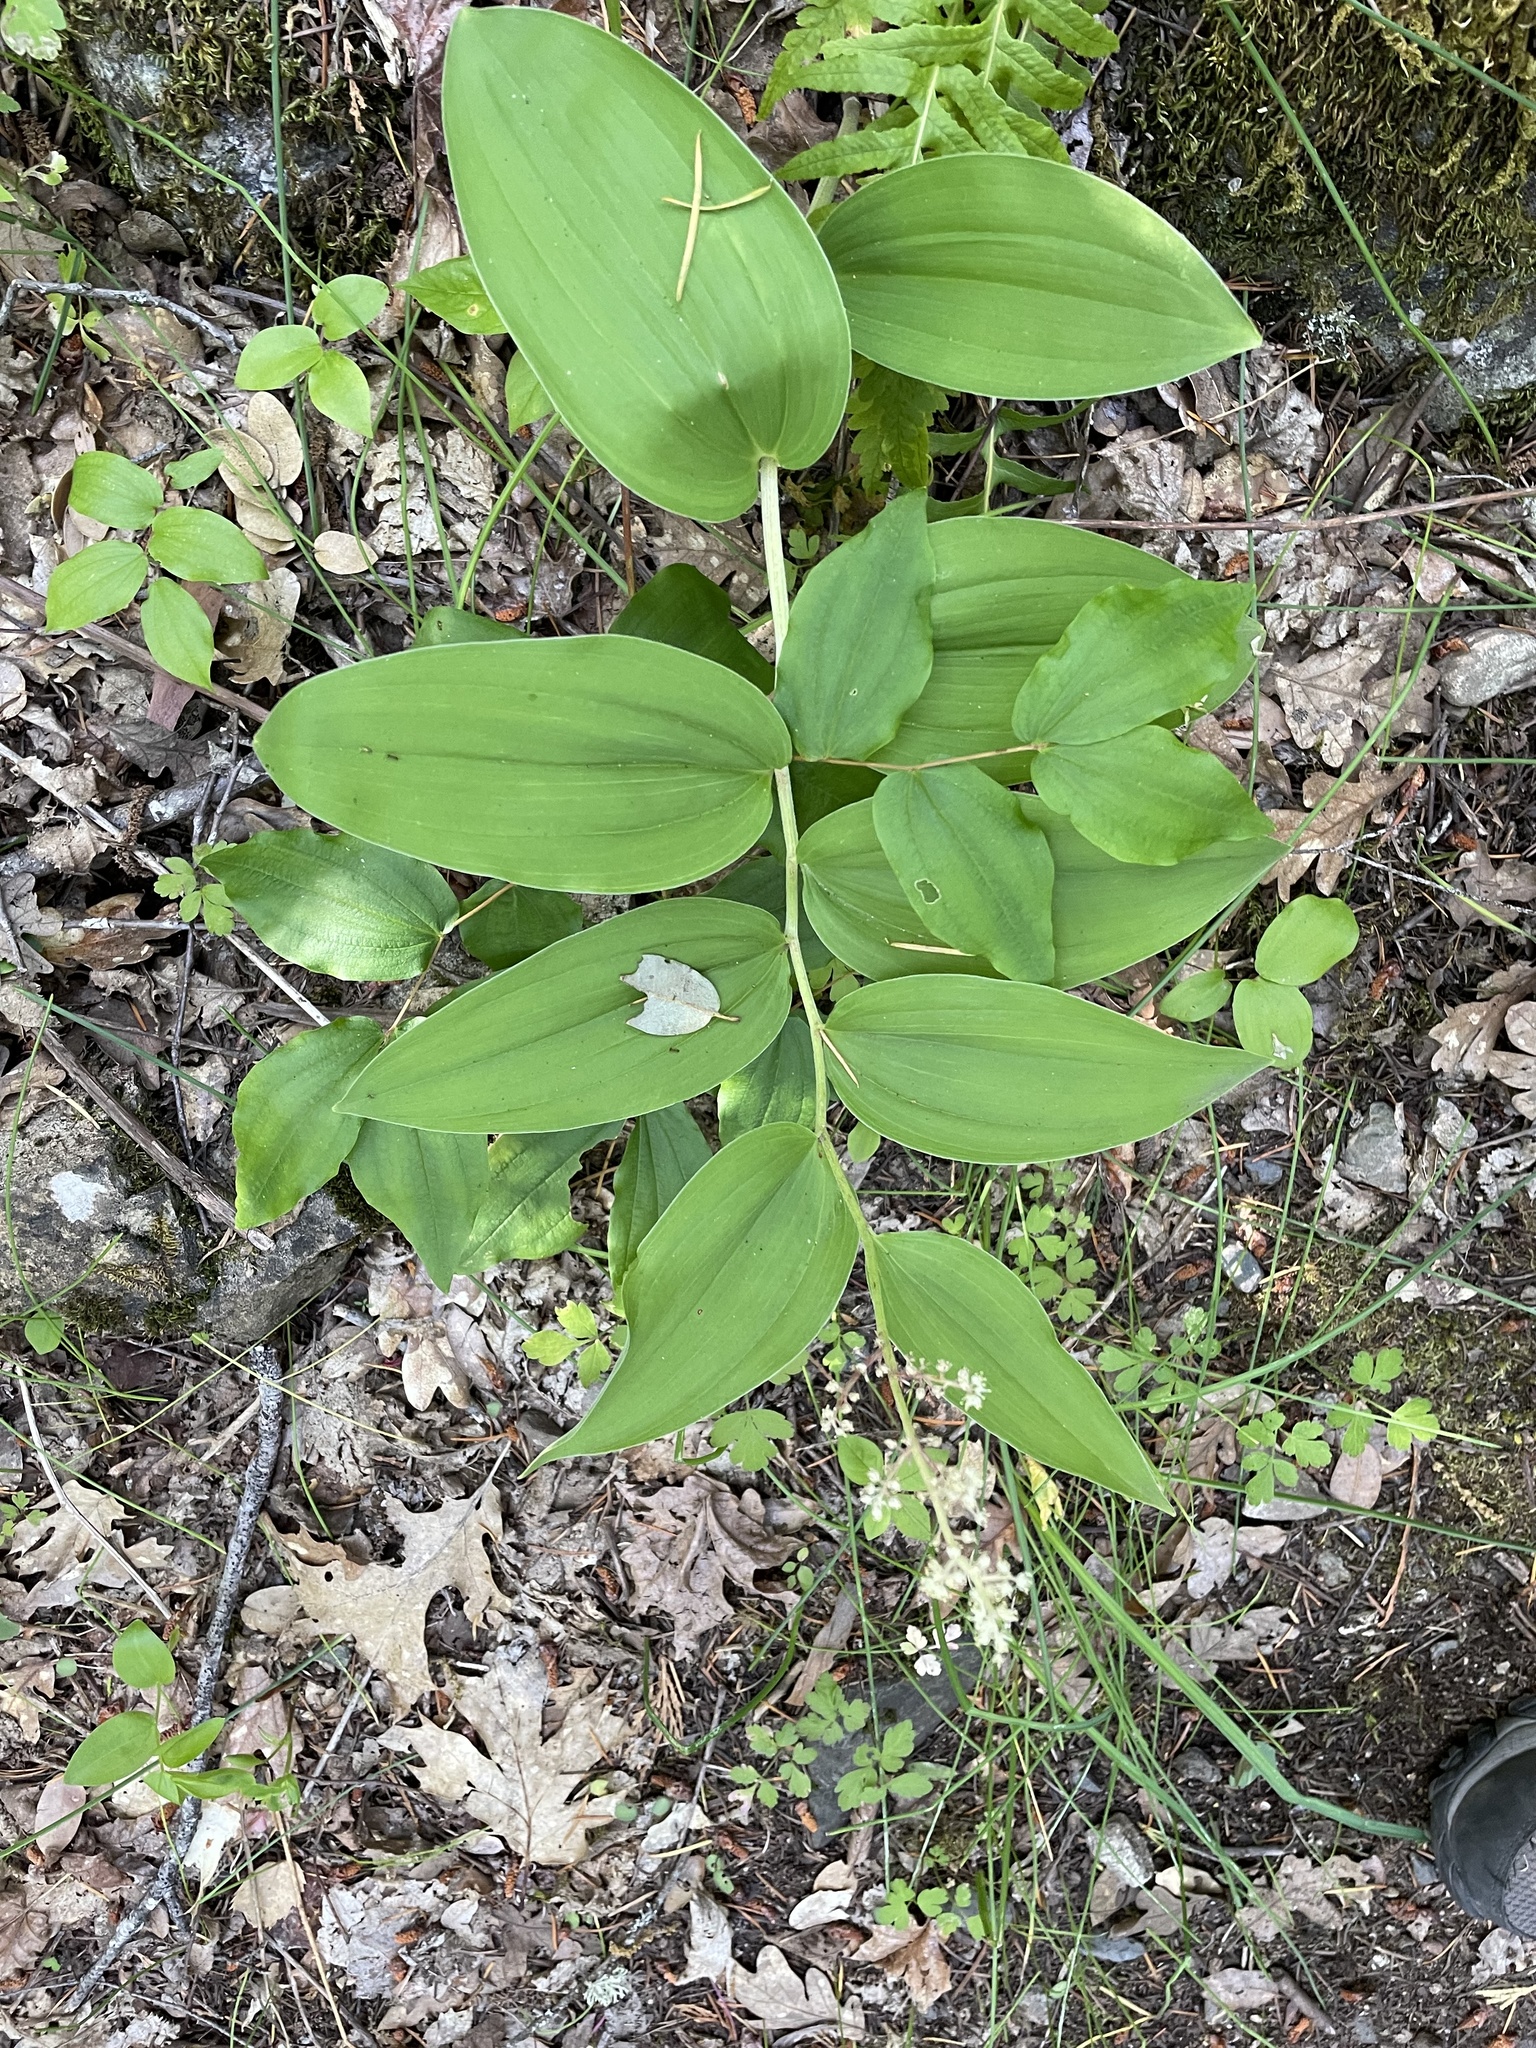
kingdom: Plantae
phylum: Tracheophyta
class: Liliopsida
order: Asparagales
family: Asparagaceae
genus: Maianthemum
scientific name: Maianthemum racemosum
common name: False spikenard
